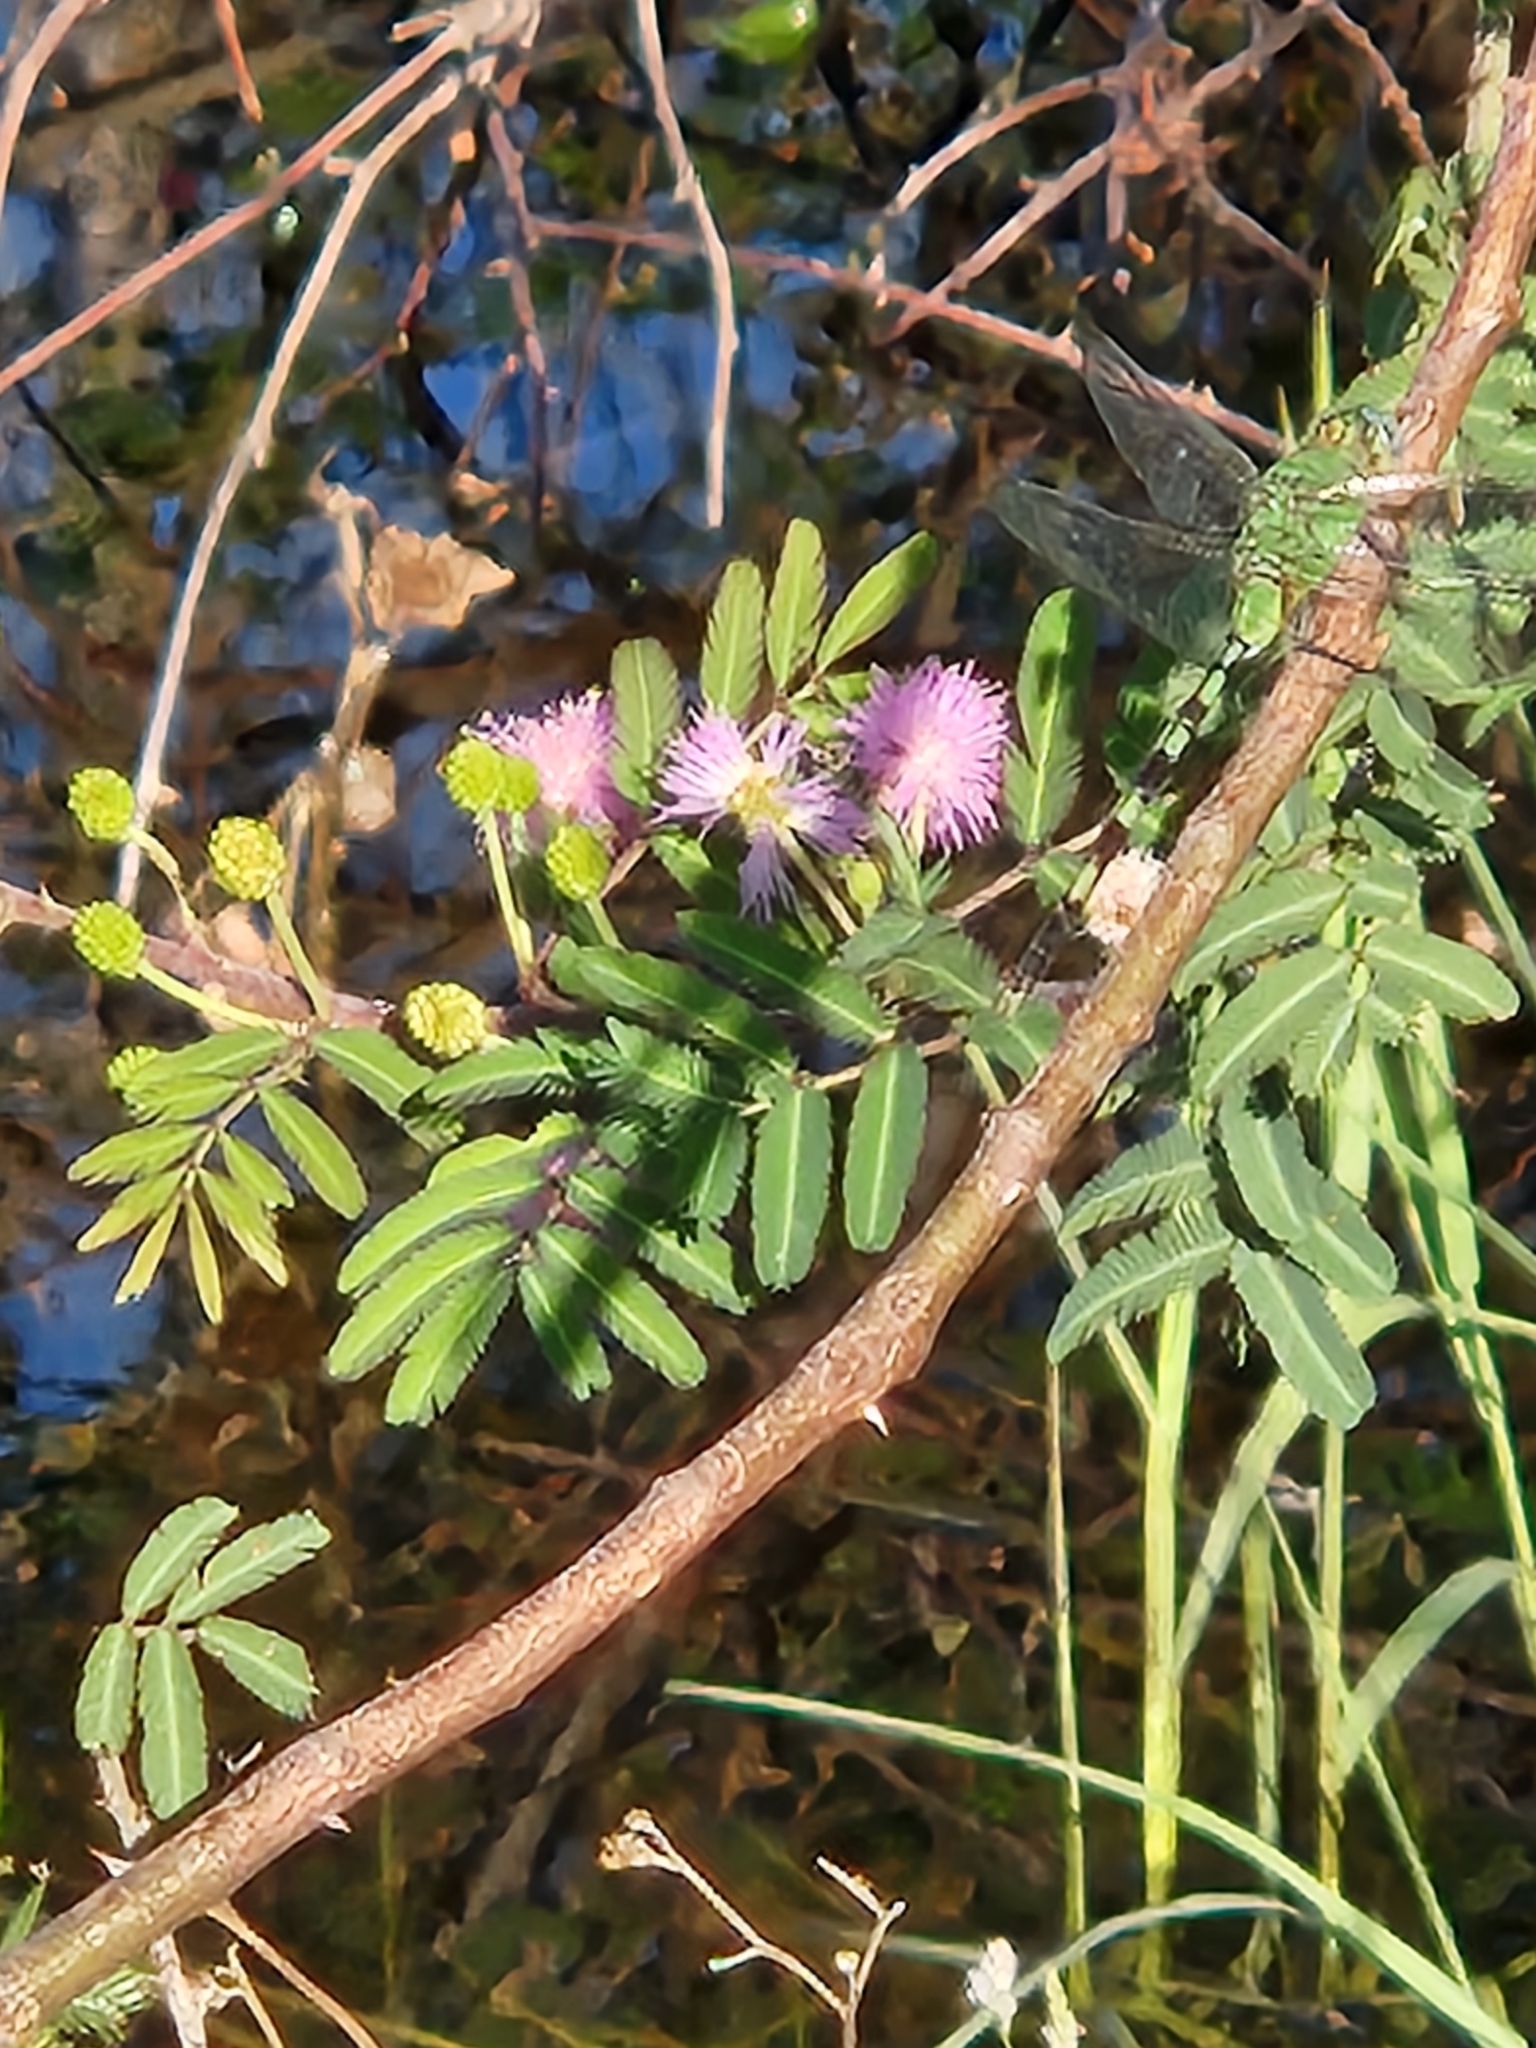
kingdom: Plantae
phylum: Tracheophyta
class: Magnoliopsida
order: Fabales
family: Fabaceae
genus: Mimosa
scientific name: Mimosa pigra
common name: Black mimosa
